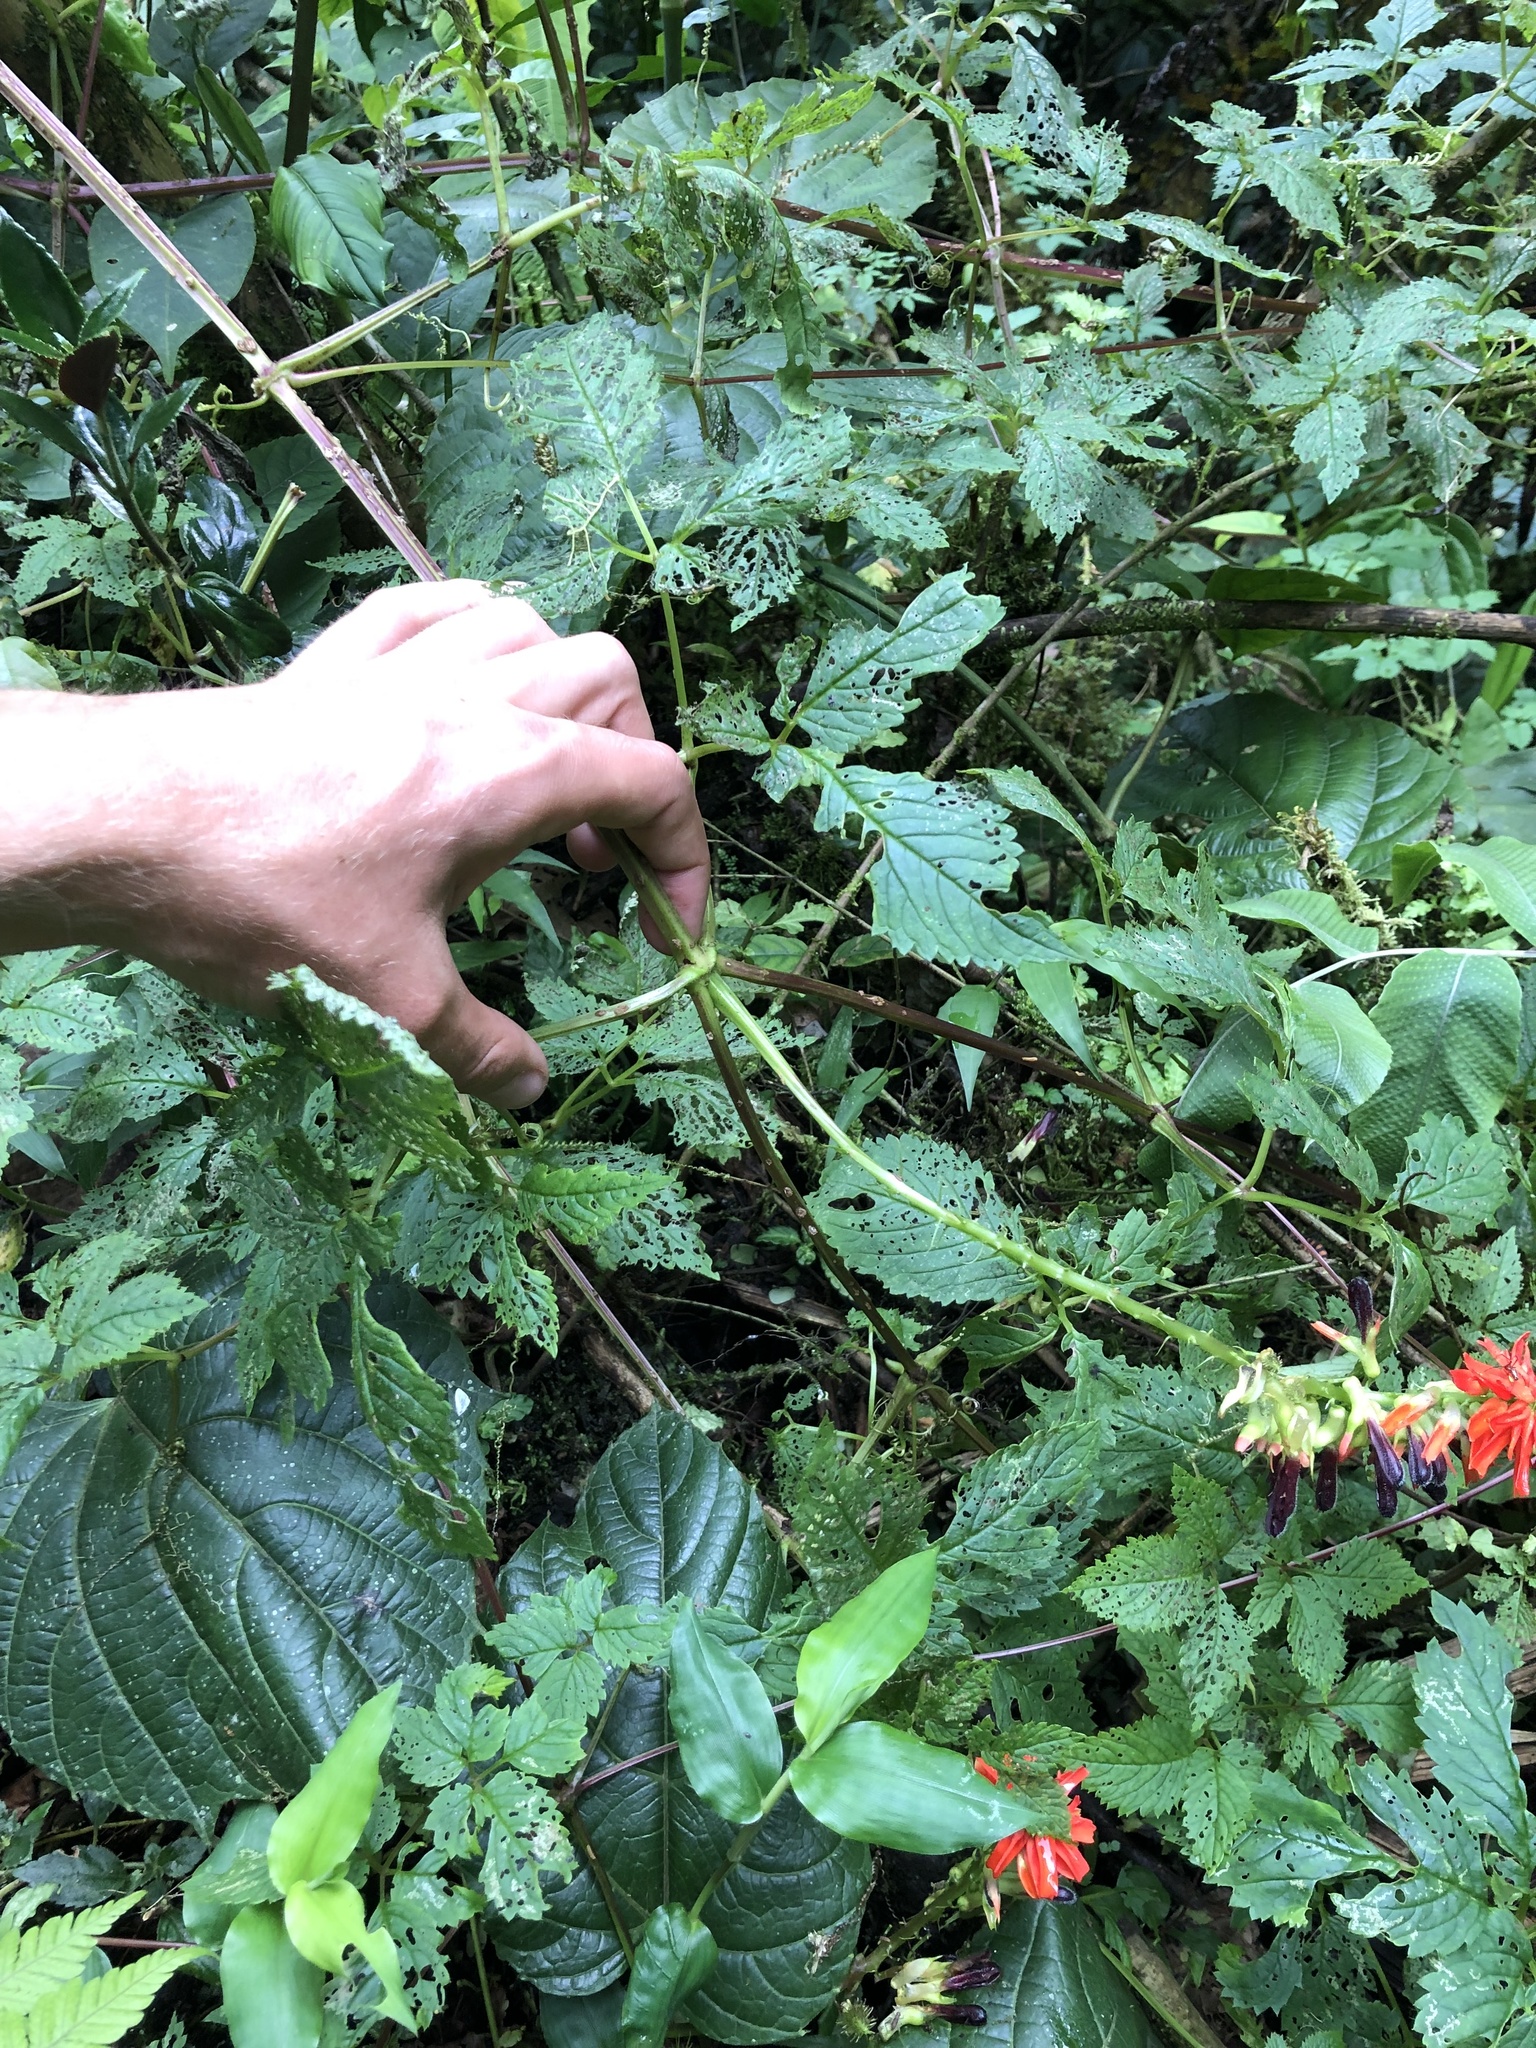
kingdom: Plantae
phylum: Tracheophyta
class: Magnoliopsida
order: Lamiales
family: Bignoniaceae
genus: Tourrettia
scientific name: Tourrettia lappacea
